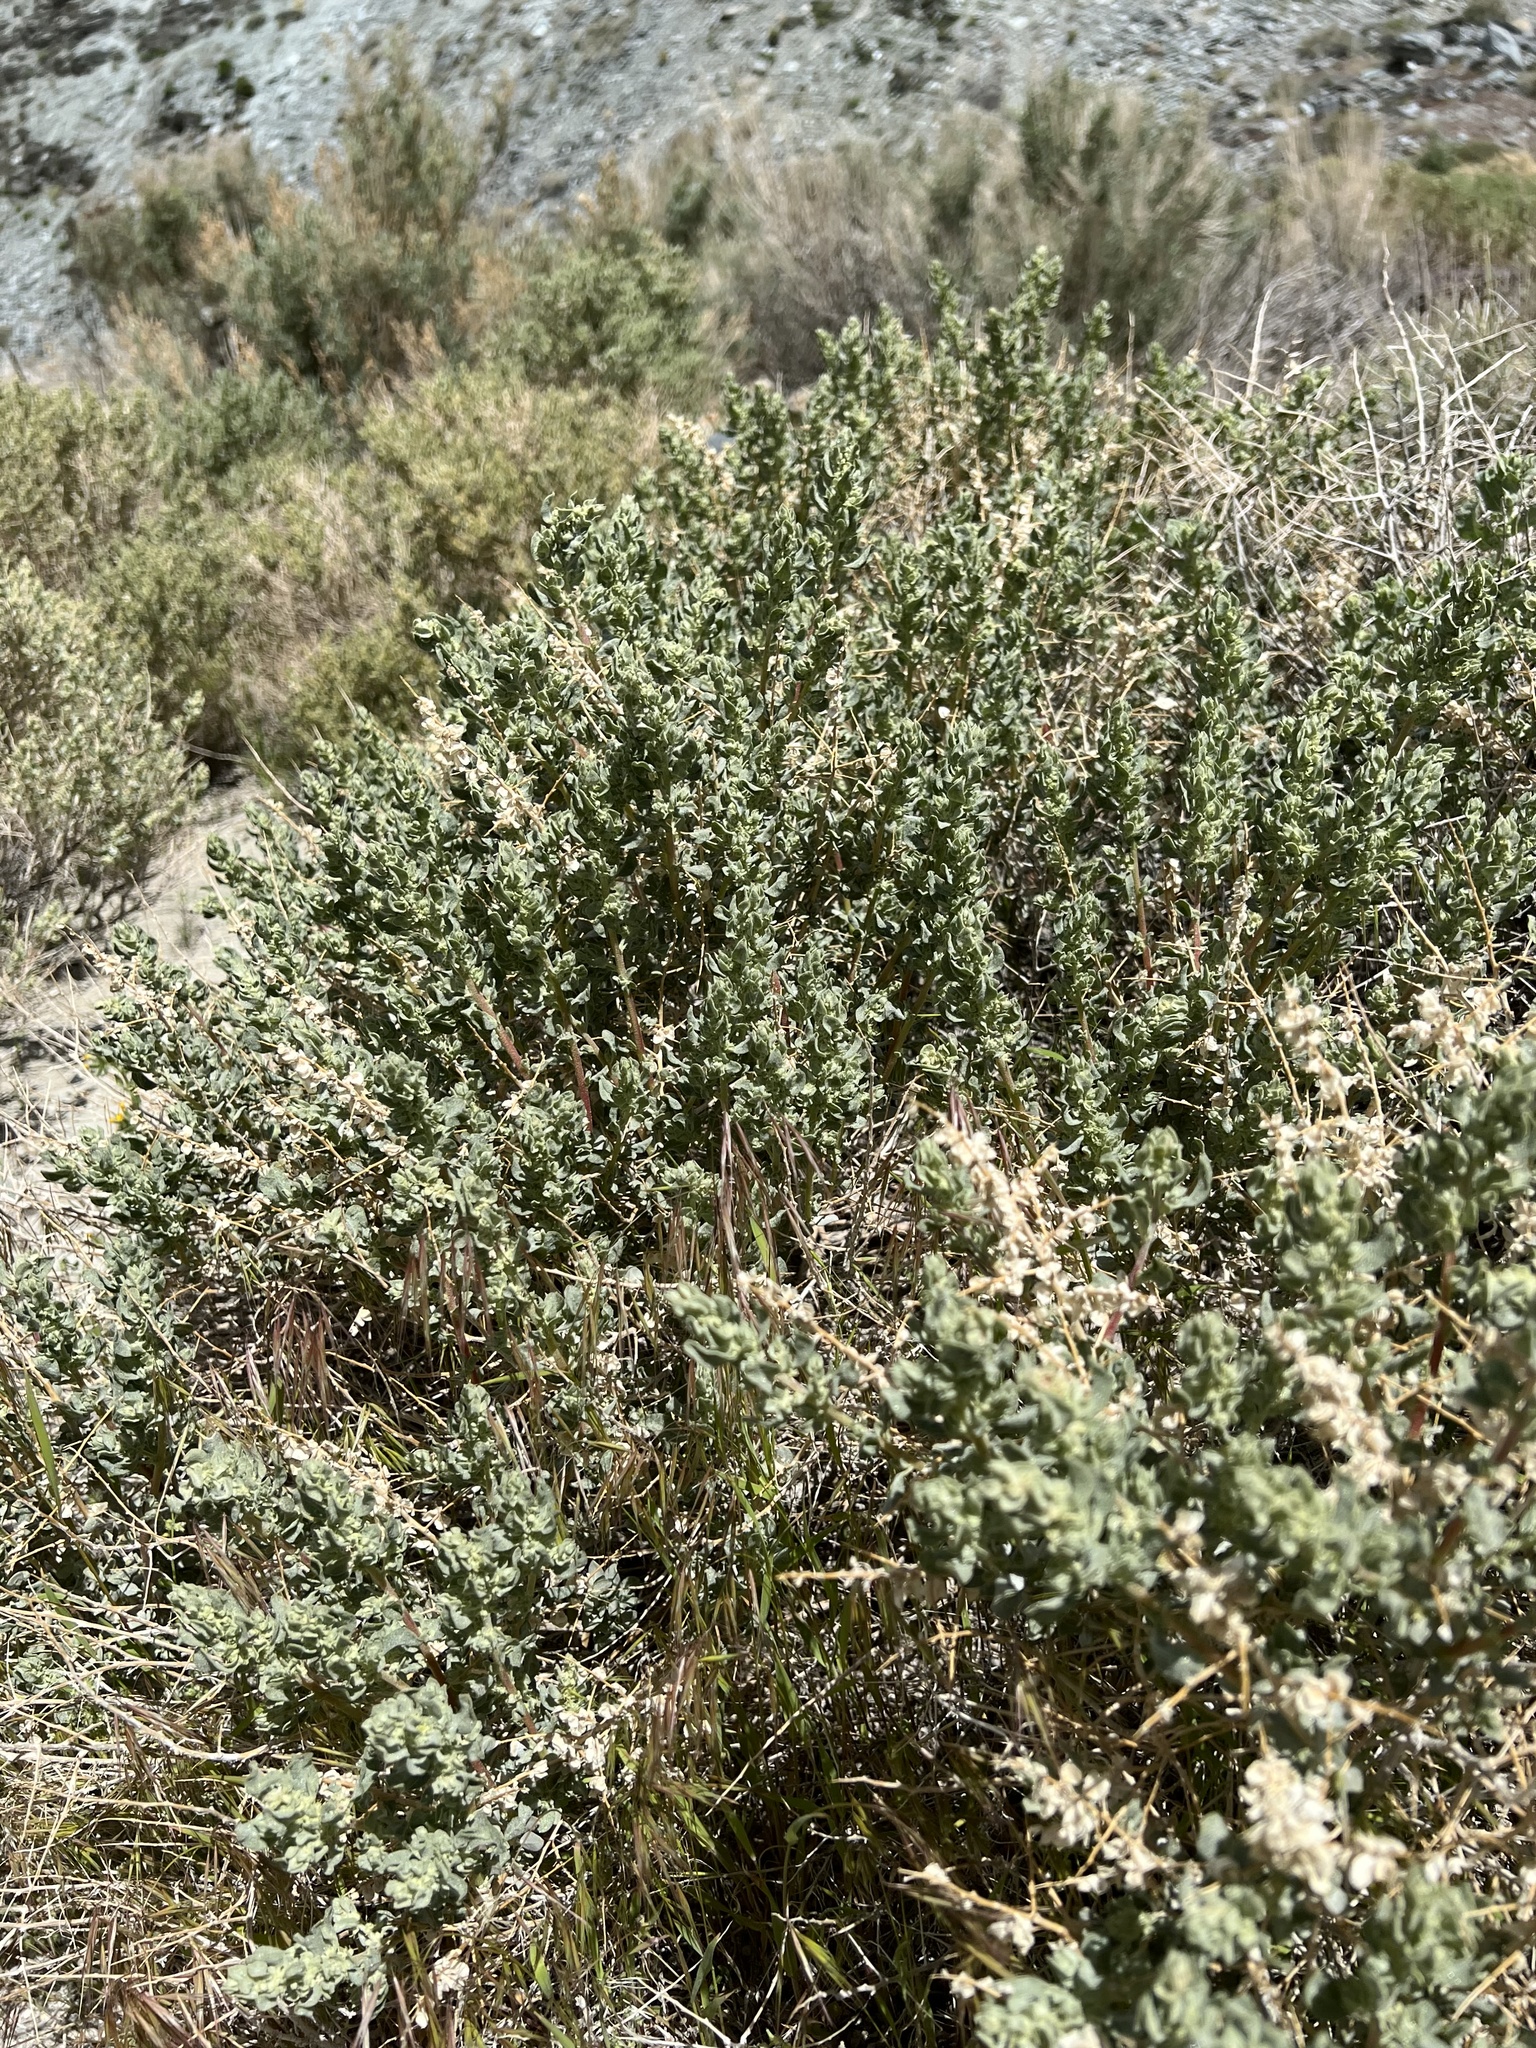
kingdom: Plantae
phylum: Tracheophyta
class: Magnoliopsida
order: Caryophyllales
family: Amaranthaceae
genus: Atriplex
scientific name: Atriplex confertifolia
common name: Shadscale
